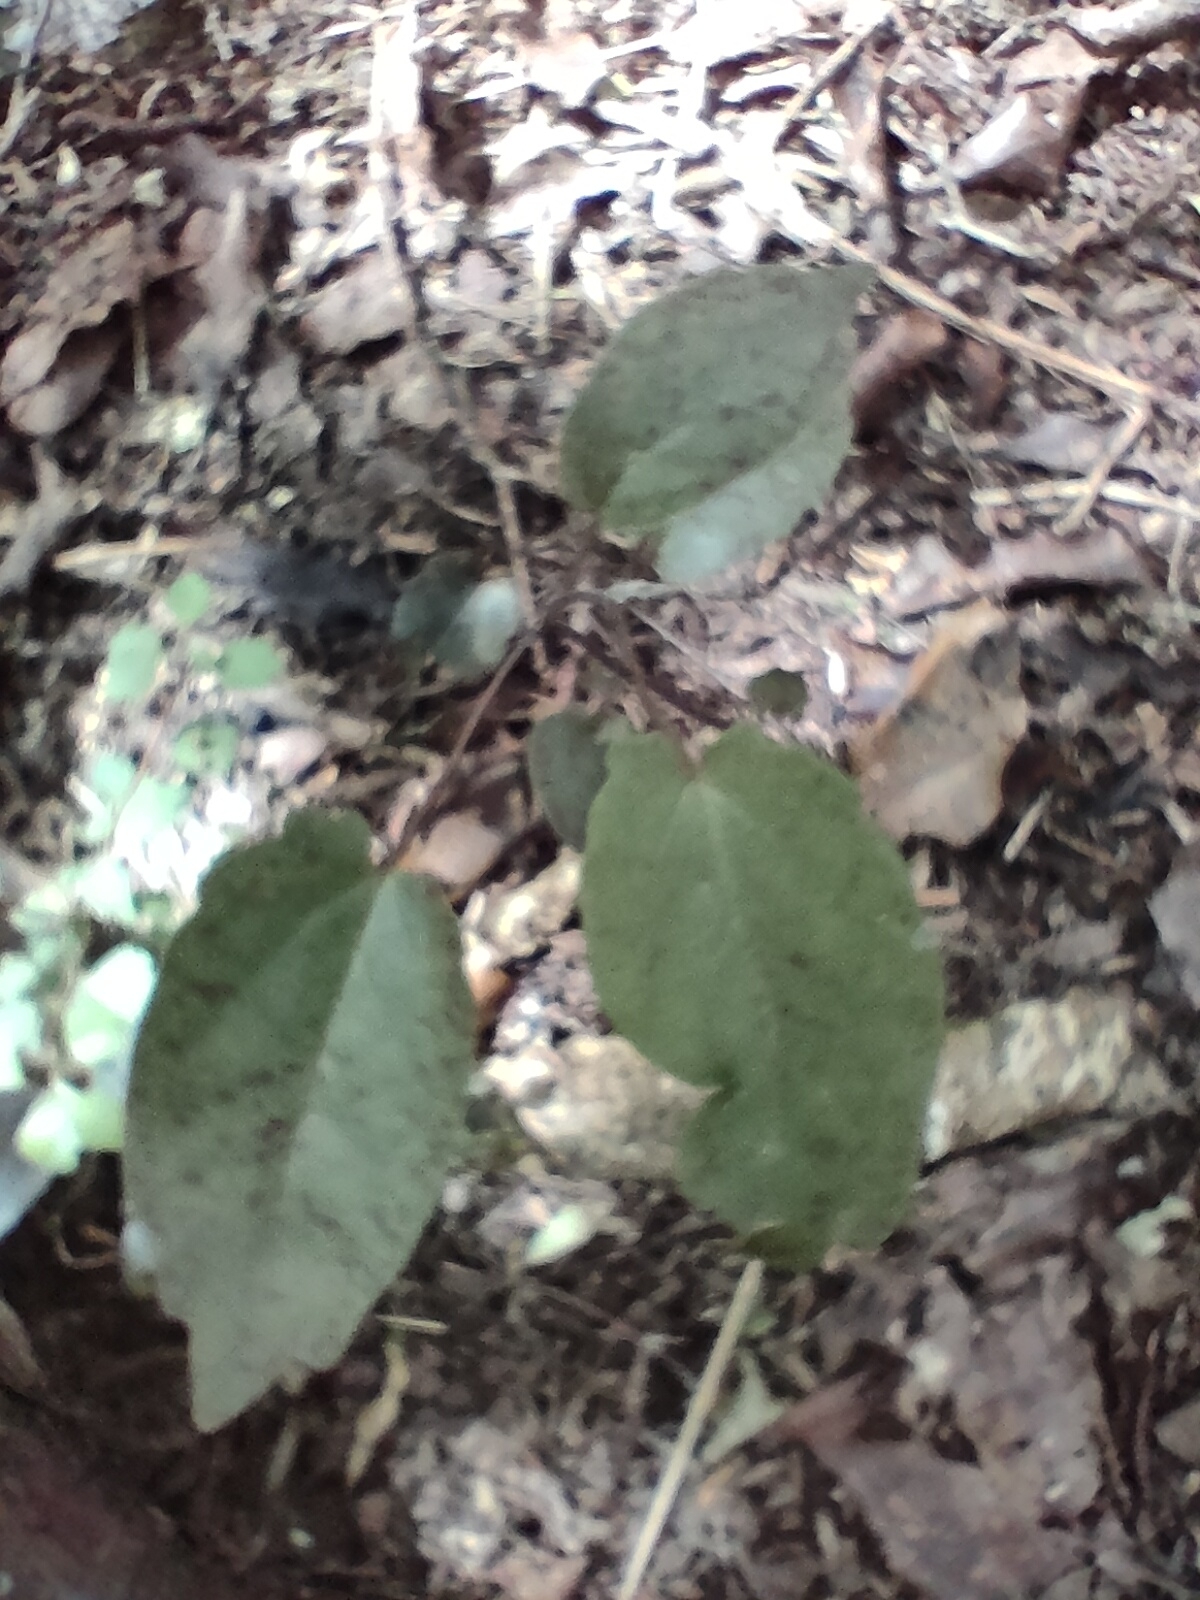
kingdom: Plantae
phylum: Tracheophyta
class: Magnoliopsida
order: Ranunculales
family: Ranunculaceae
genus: Clematis
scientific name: Clematis paniculata
